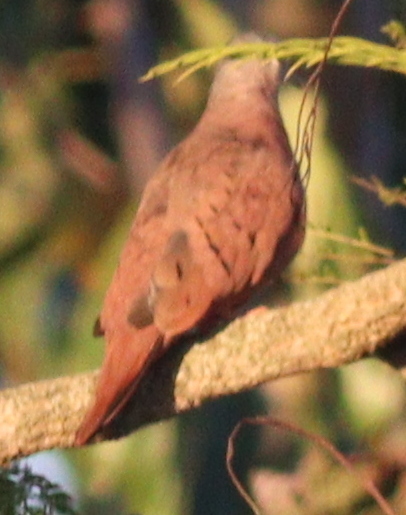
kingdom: Animalia
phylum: Chordata
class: Aves
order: Columbiformes
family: Columbidae
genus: Columbina
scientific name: Columbina talpacoti
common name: Ruddy ground dove
